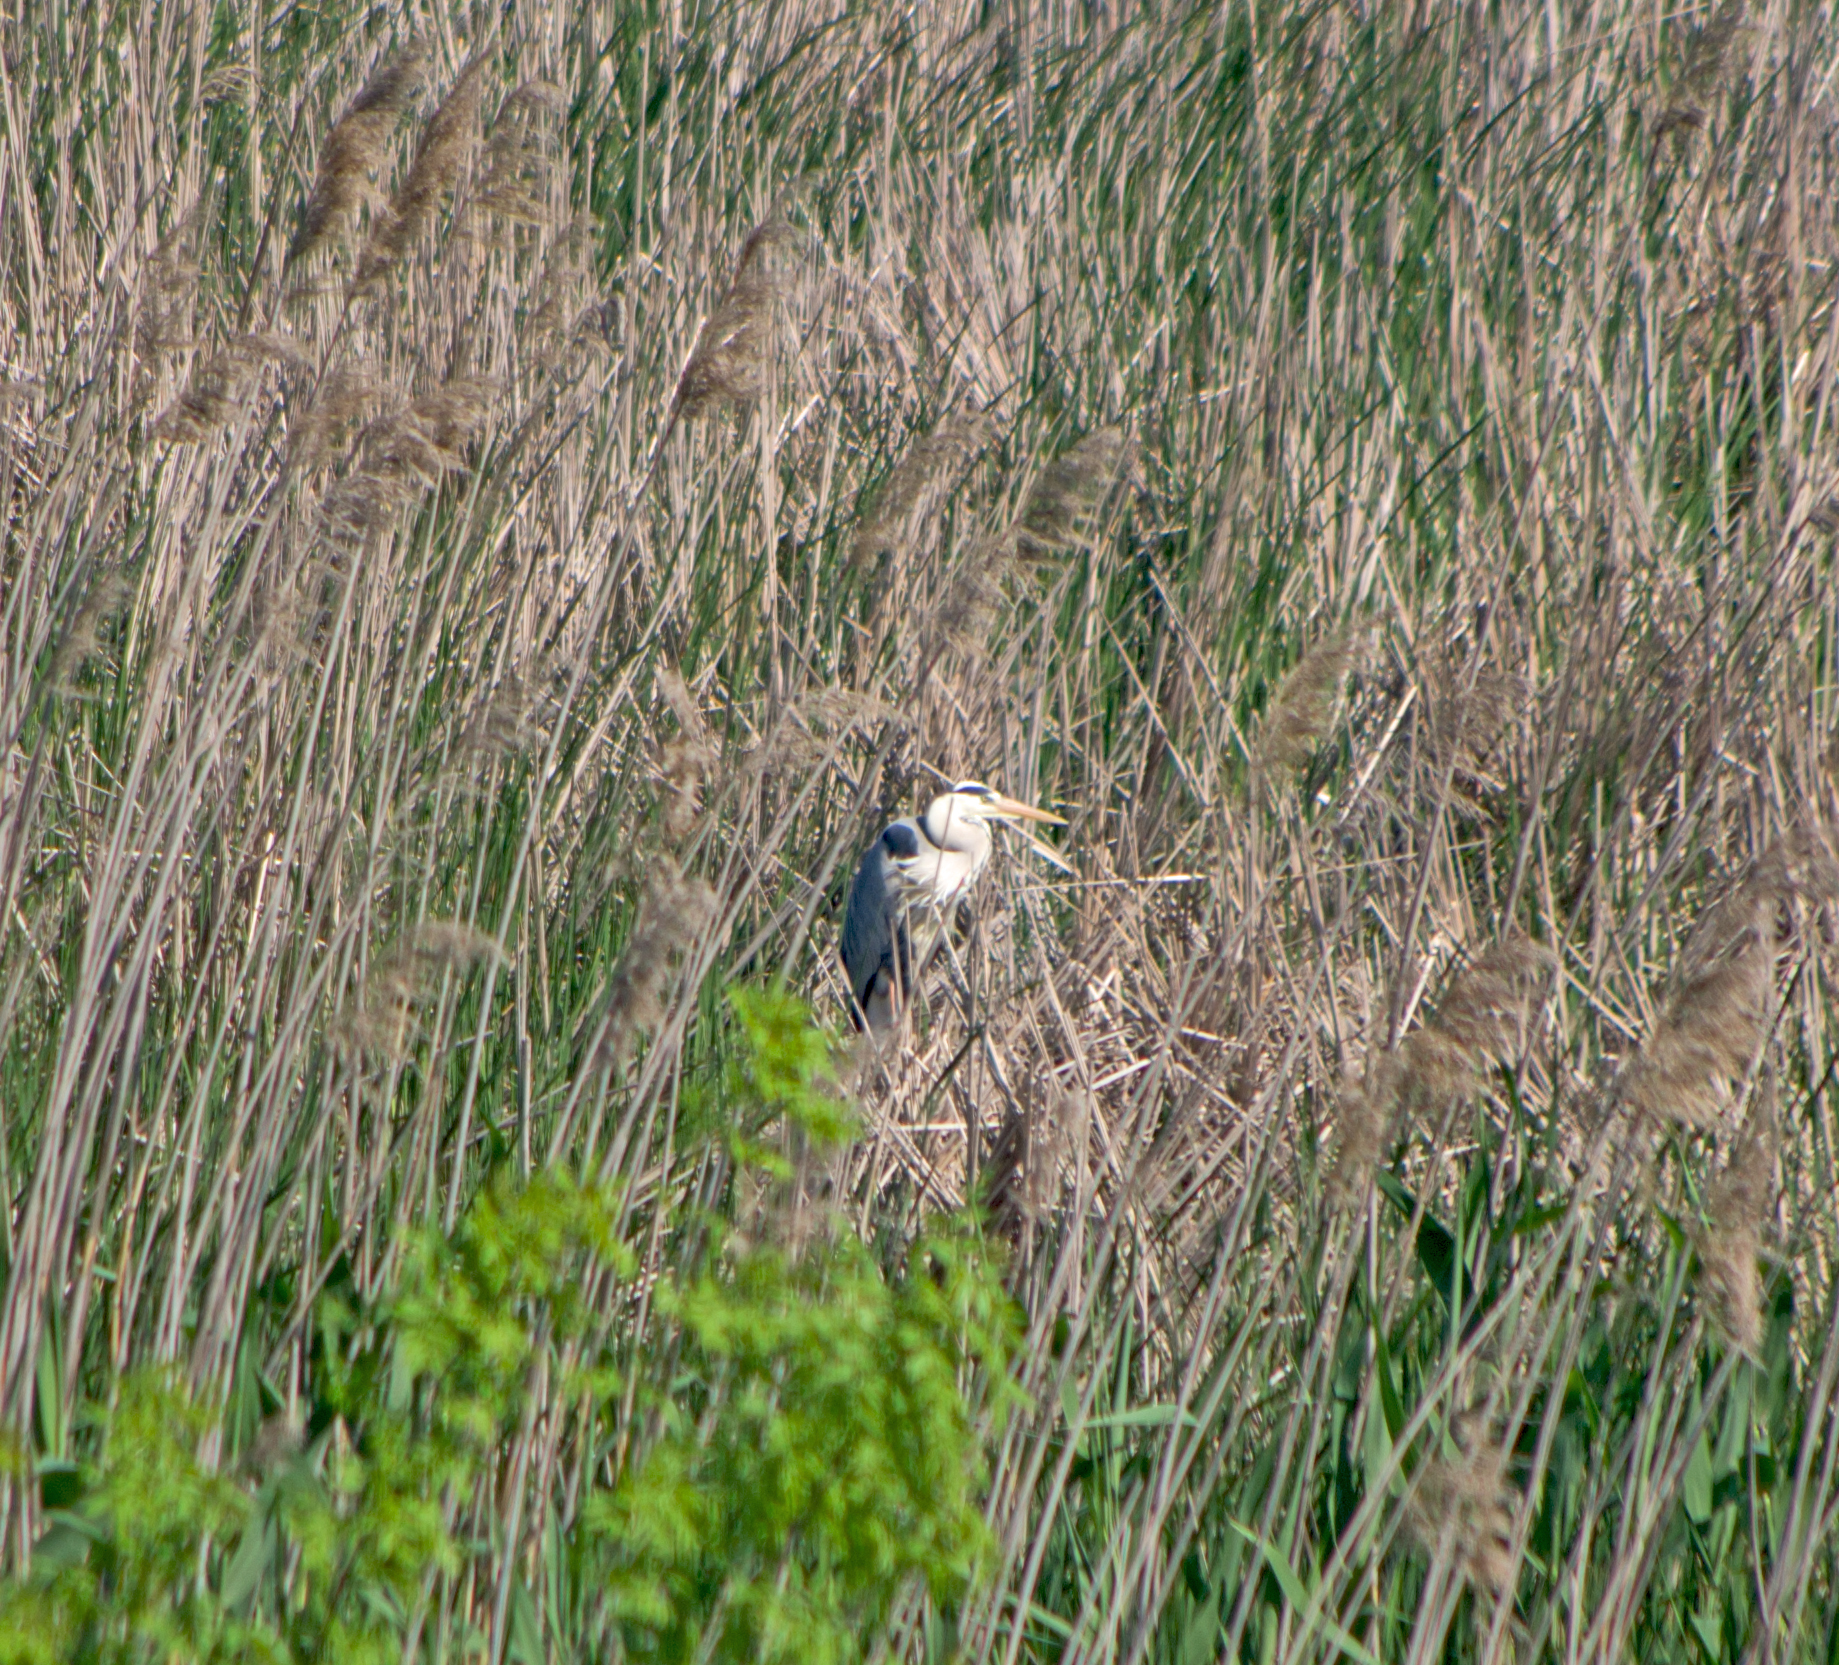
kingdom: Animalia
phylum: Chordata
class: Aves
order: Pelecaniformes
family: Ardeidae
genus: Ardea
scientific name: Ardea cinerea
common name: Grey heron
